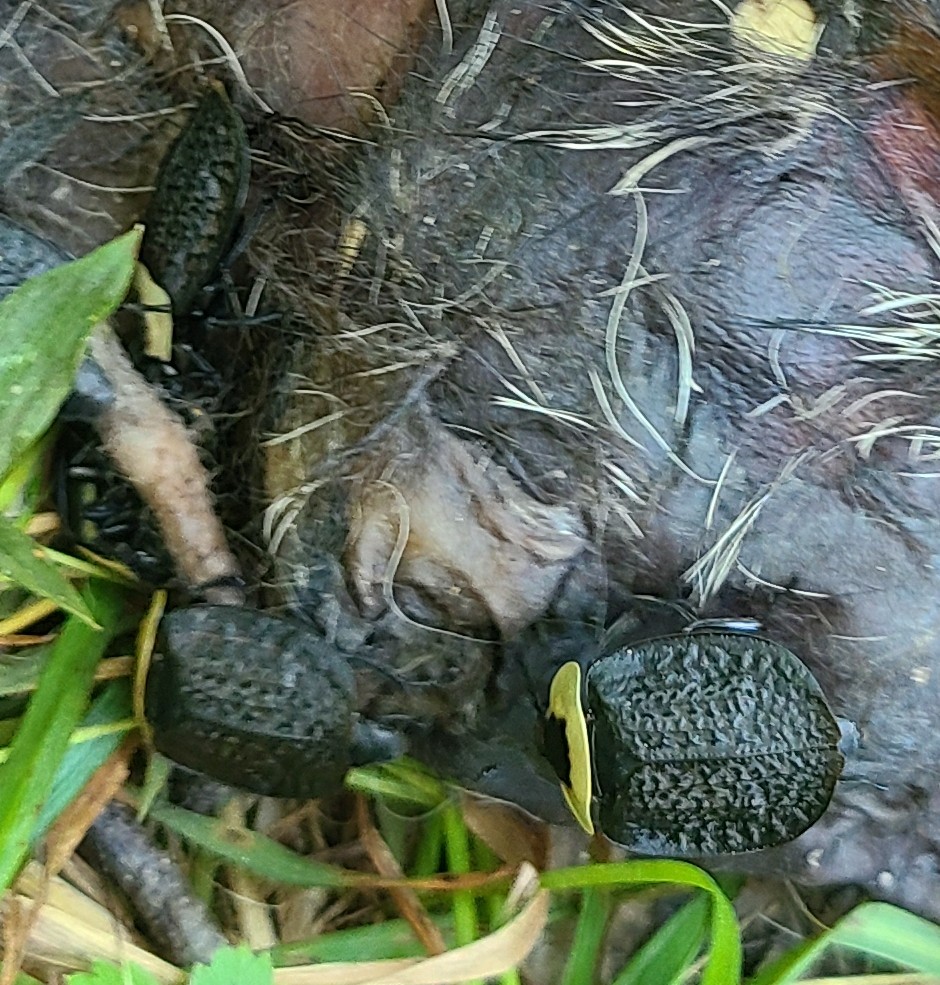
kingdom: Animalia
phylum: Arthropoda
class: Insecta
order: Coleoptera
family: Staphylinidae
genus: Necrophila
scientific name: Necrophila americana
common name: American carrion beetle
